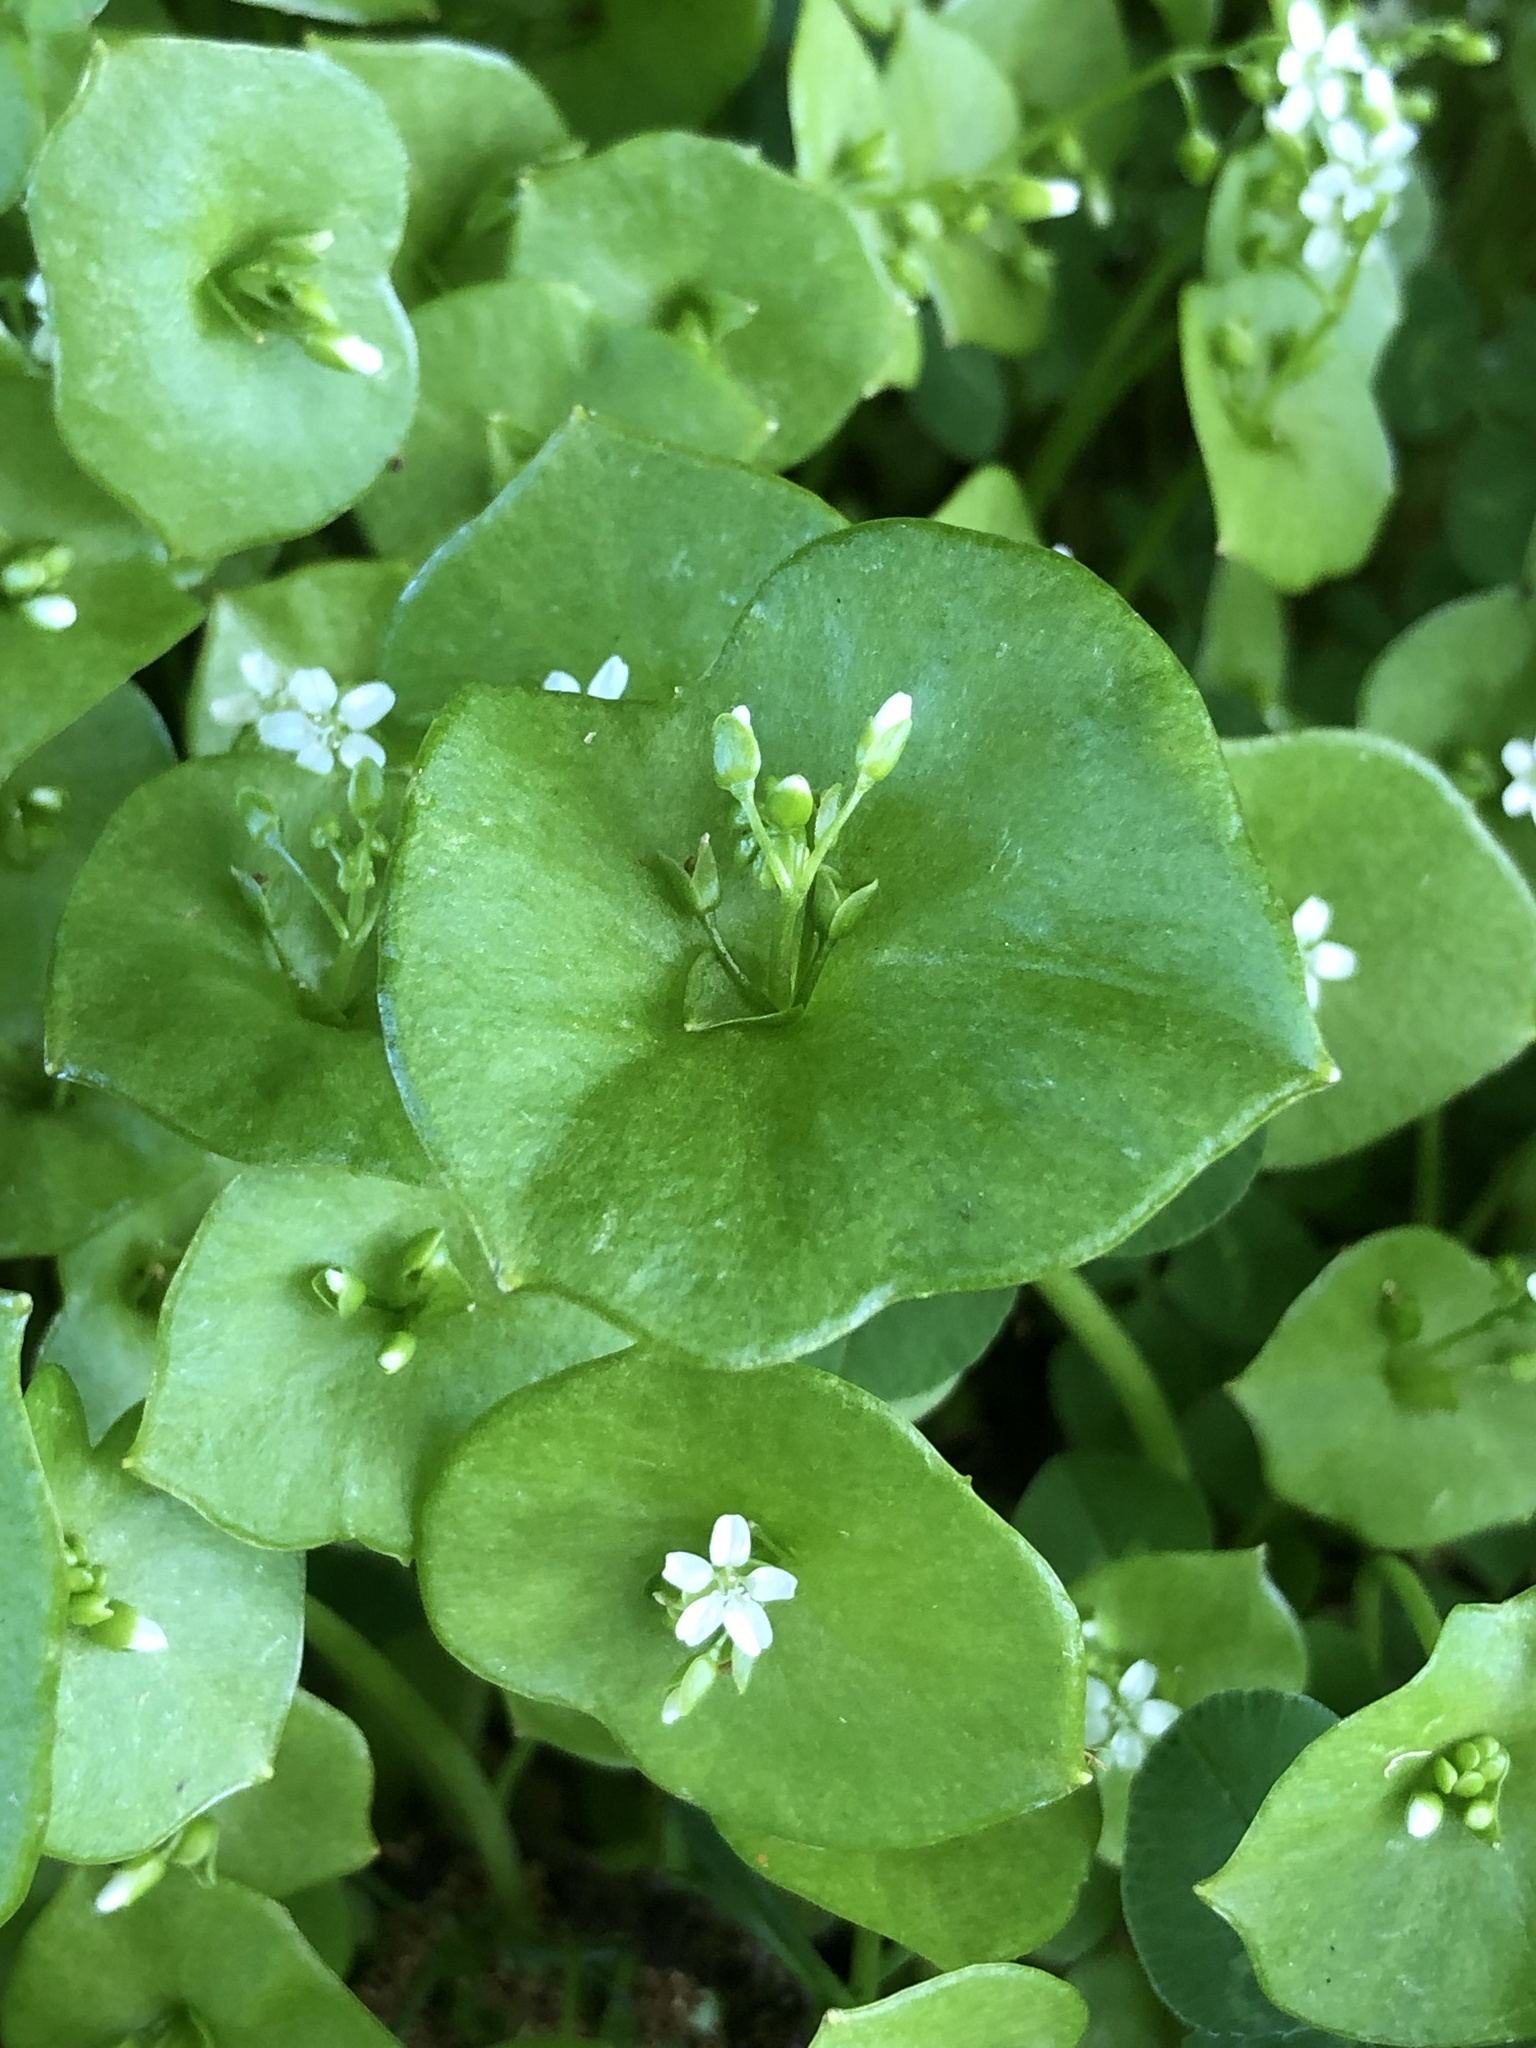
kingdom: Plantae
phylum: Tracheophyta
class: Magnoliopsida
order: Caryophyllales
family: Montiaceae
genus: Claytonia
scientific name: Claytonia perfoliata
